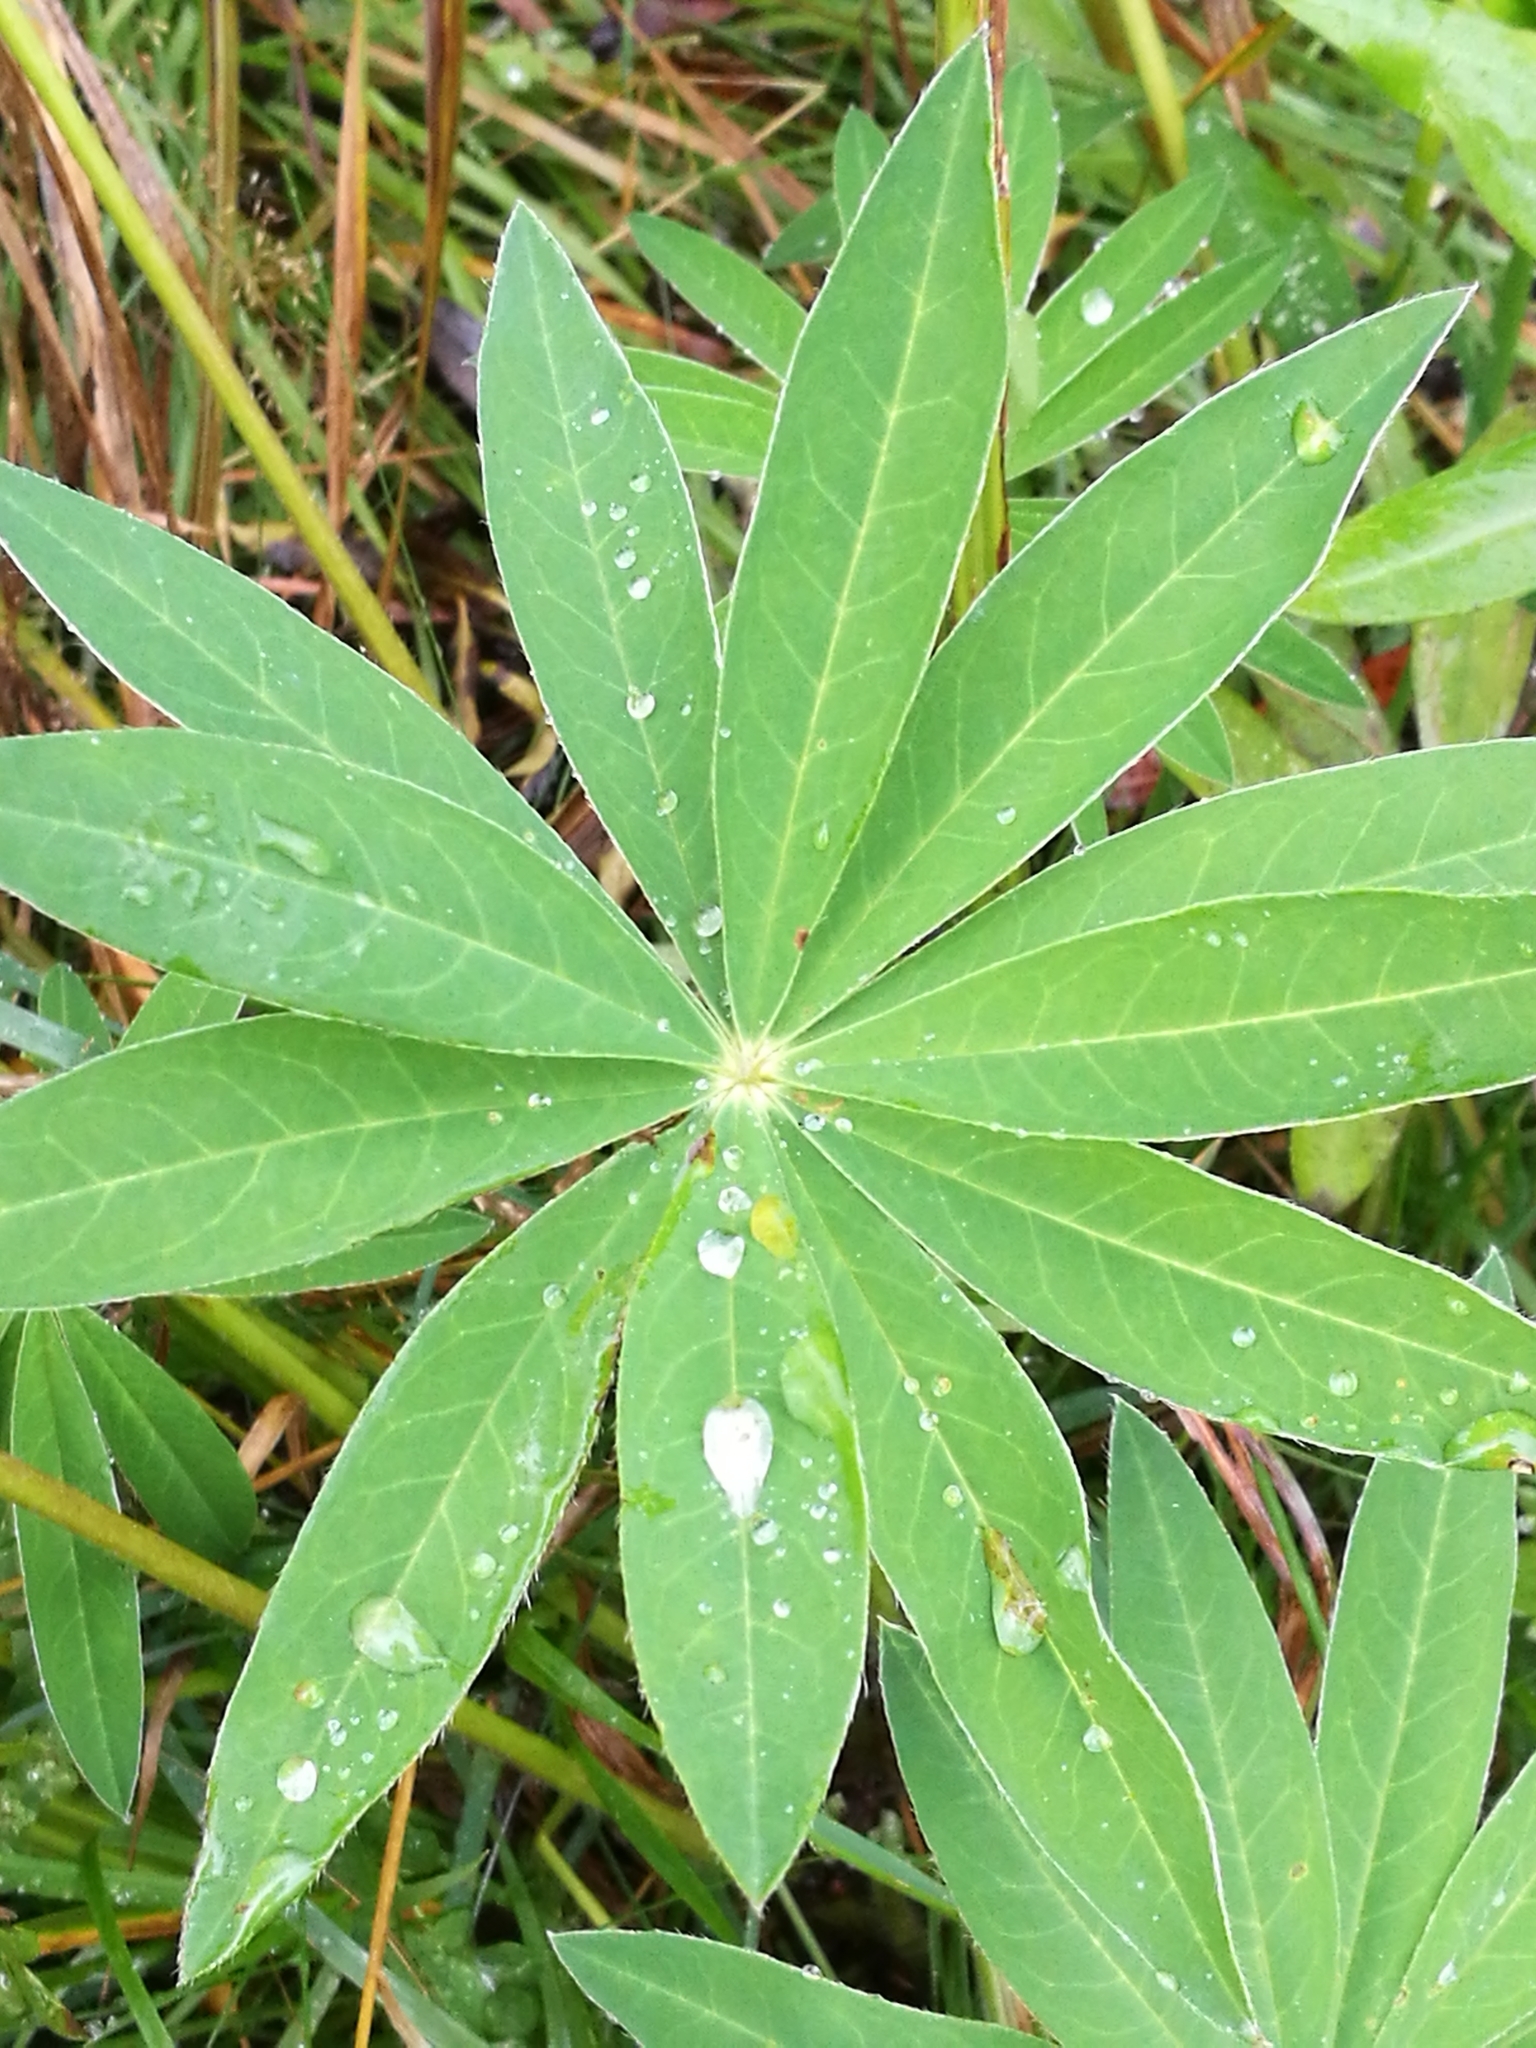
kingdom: Plantae
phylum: Tracheophyta
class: Magnoliopsida
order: Fabales
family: Fabaceae
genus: Lupinus
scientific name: Lupinus polyphyllus
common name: Garden lupin
